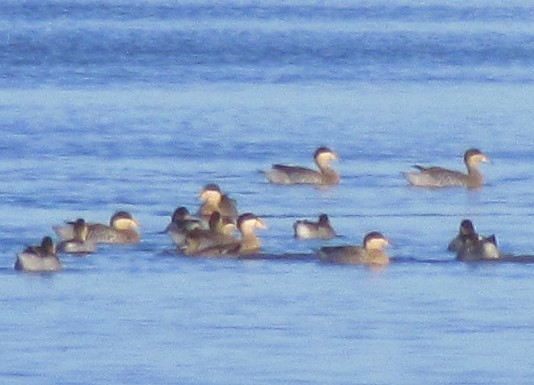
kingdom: Animalia
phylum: Chordata
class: Aves
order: Anseriformes
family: Anatidae
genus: Spatula
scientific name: Spatula versicolor
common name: Silver teal
